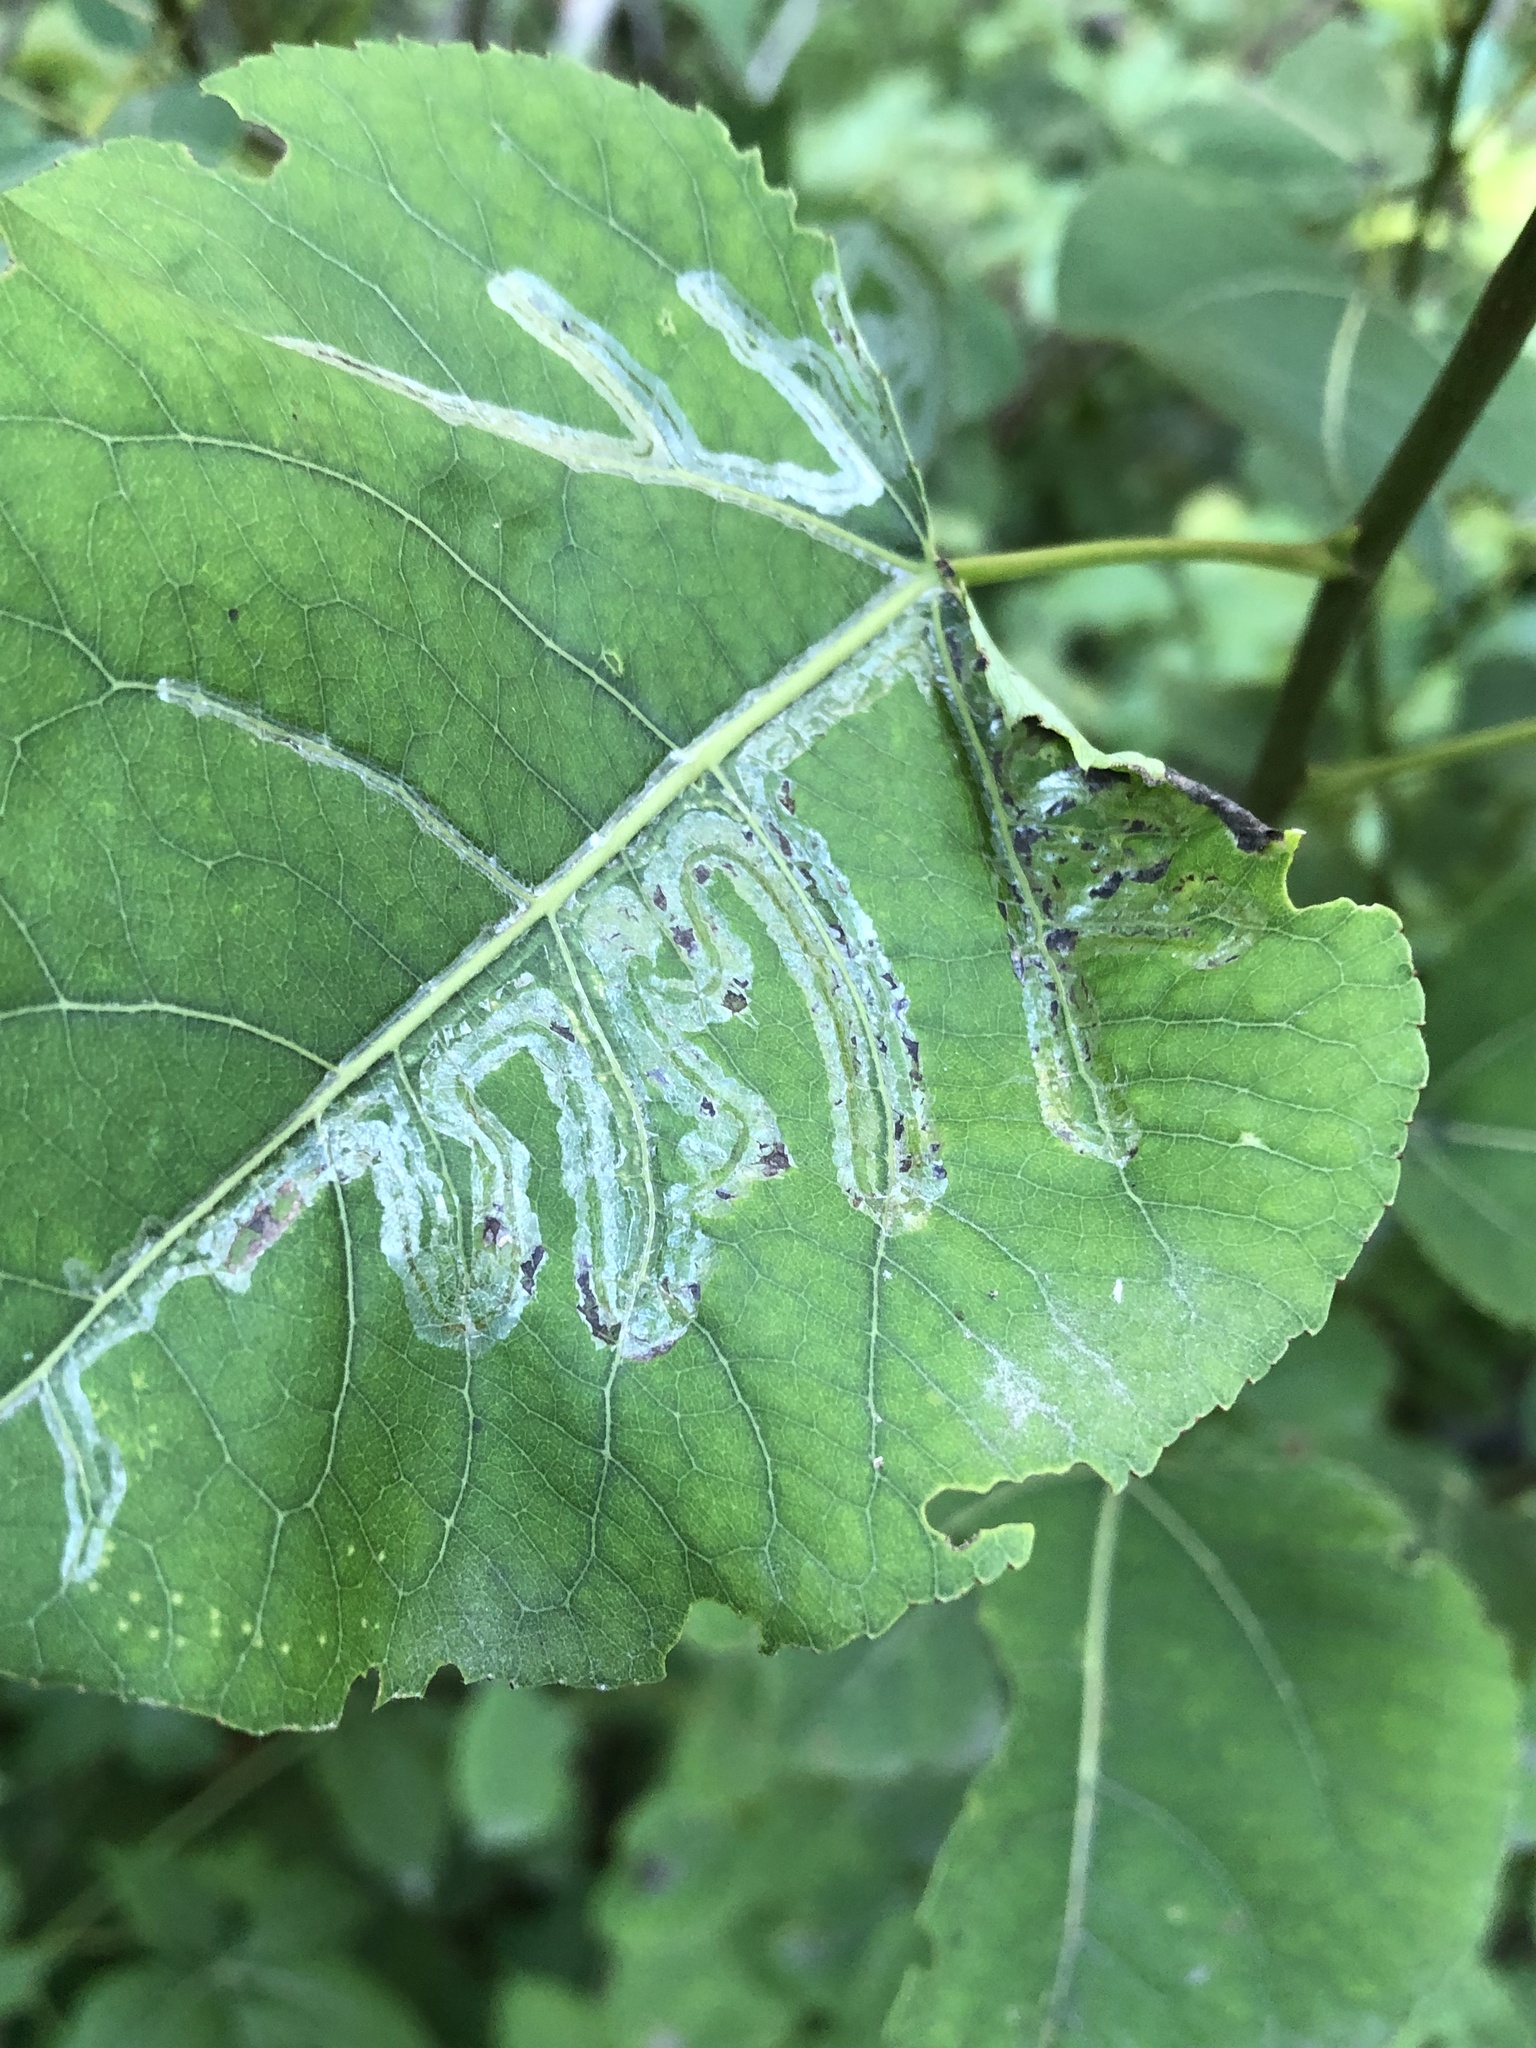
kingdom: Animalia
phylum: Arthropoda
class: Insecta
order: Lepidoptera
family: Gracillariidae
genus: Phyllocnistis
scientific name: Phyllocnistis populiella
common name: Aspen serpentine leafminer moth
